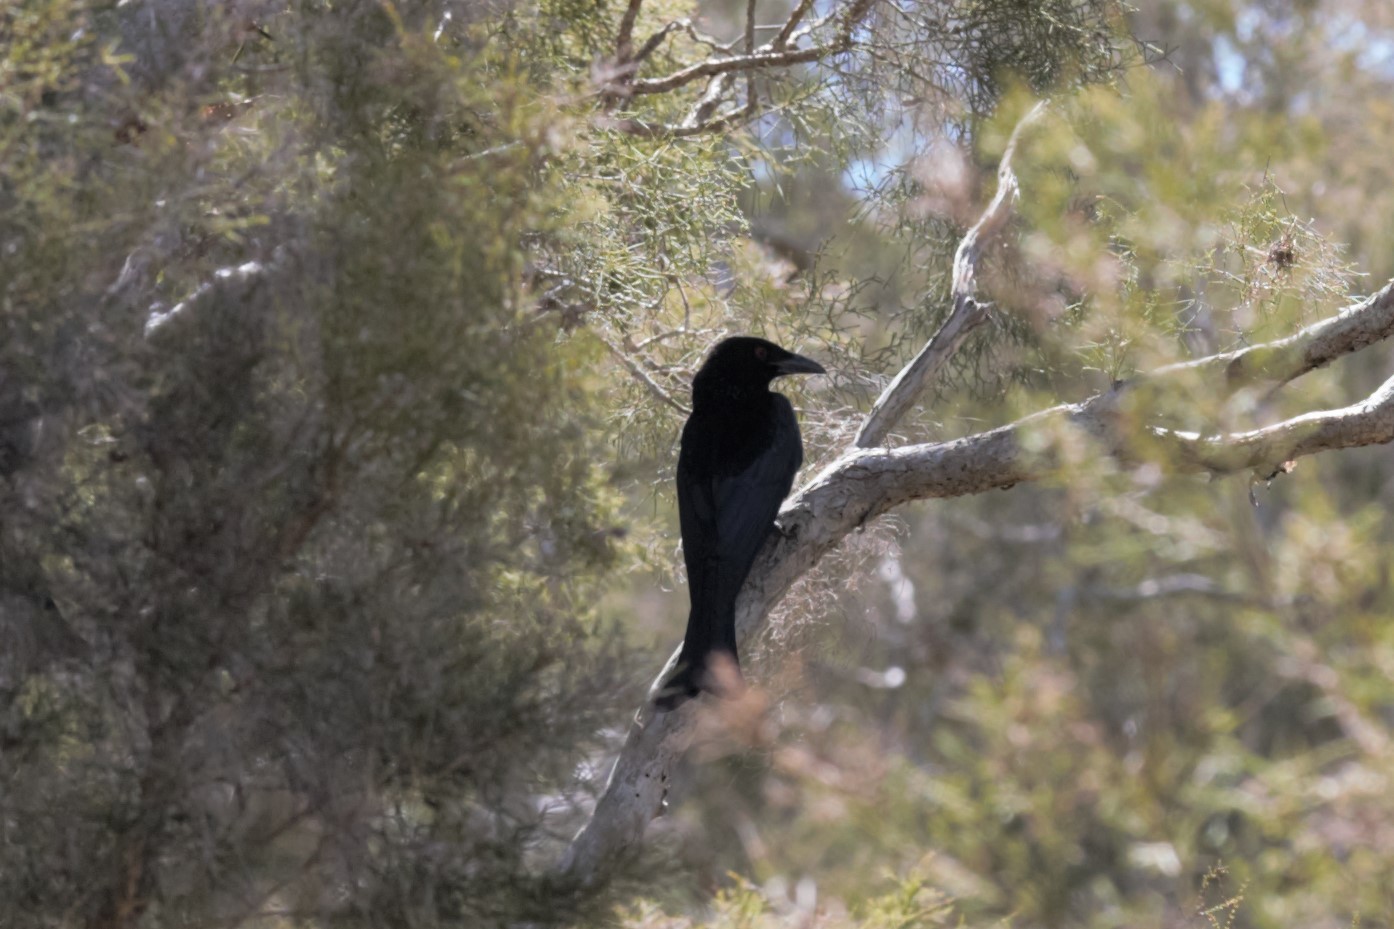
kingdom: Animalia
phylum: Chordata
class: Aves
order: Passeriformes
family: Dicruridae
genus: Dicrurus
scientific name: Dicrurus bracteatus
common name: Spangled drongo
